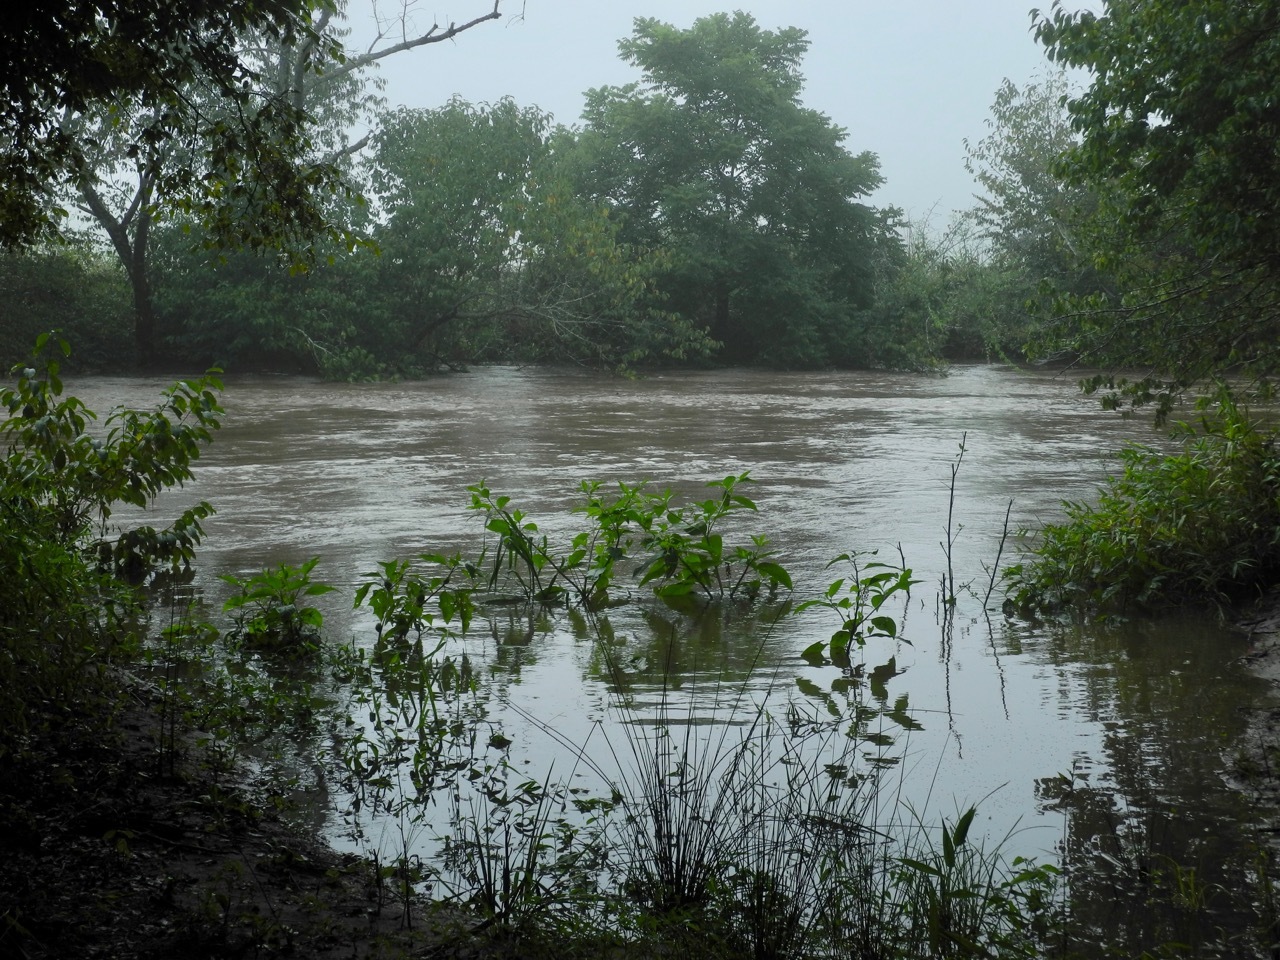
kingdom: Plantae
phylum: Tracheophyta
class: Magnoliopsida
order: Caryophyllales
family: Phytolaccaceae
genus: Phytolacca
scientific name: Phytolacca americana
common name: American pokeweed
